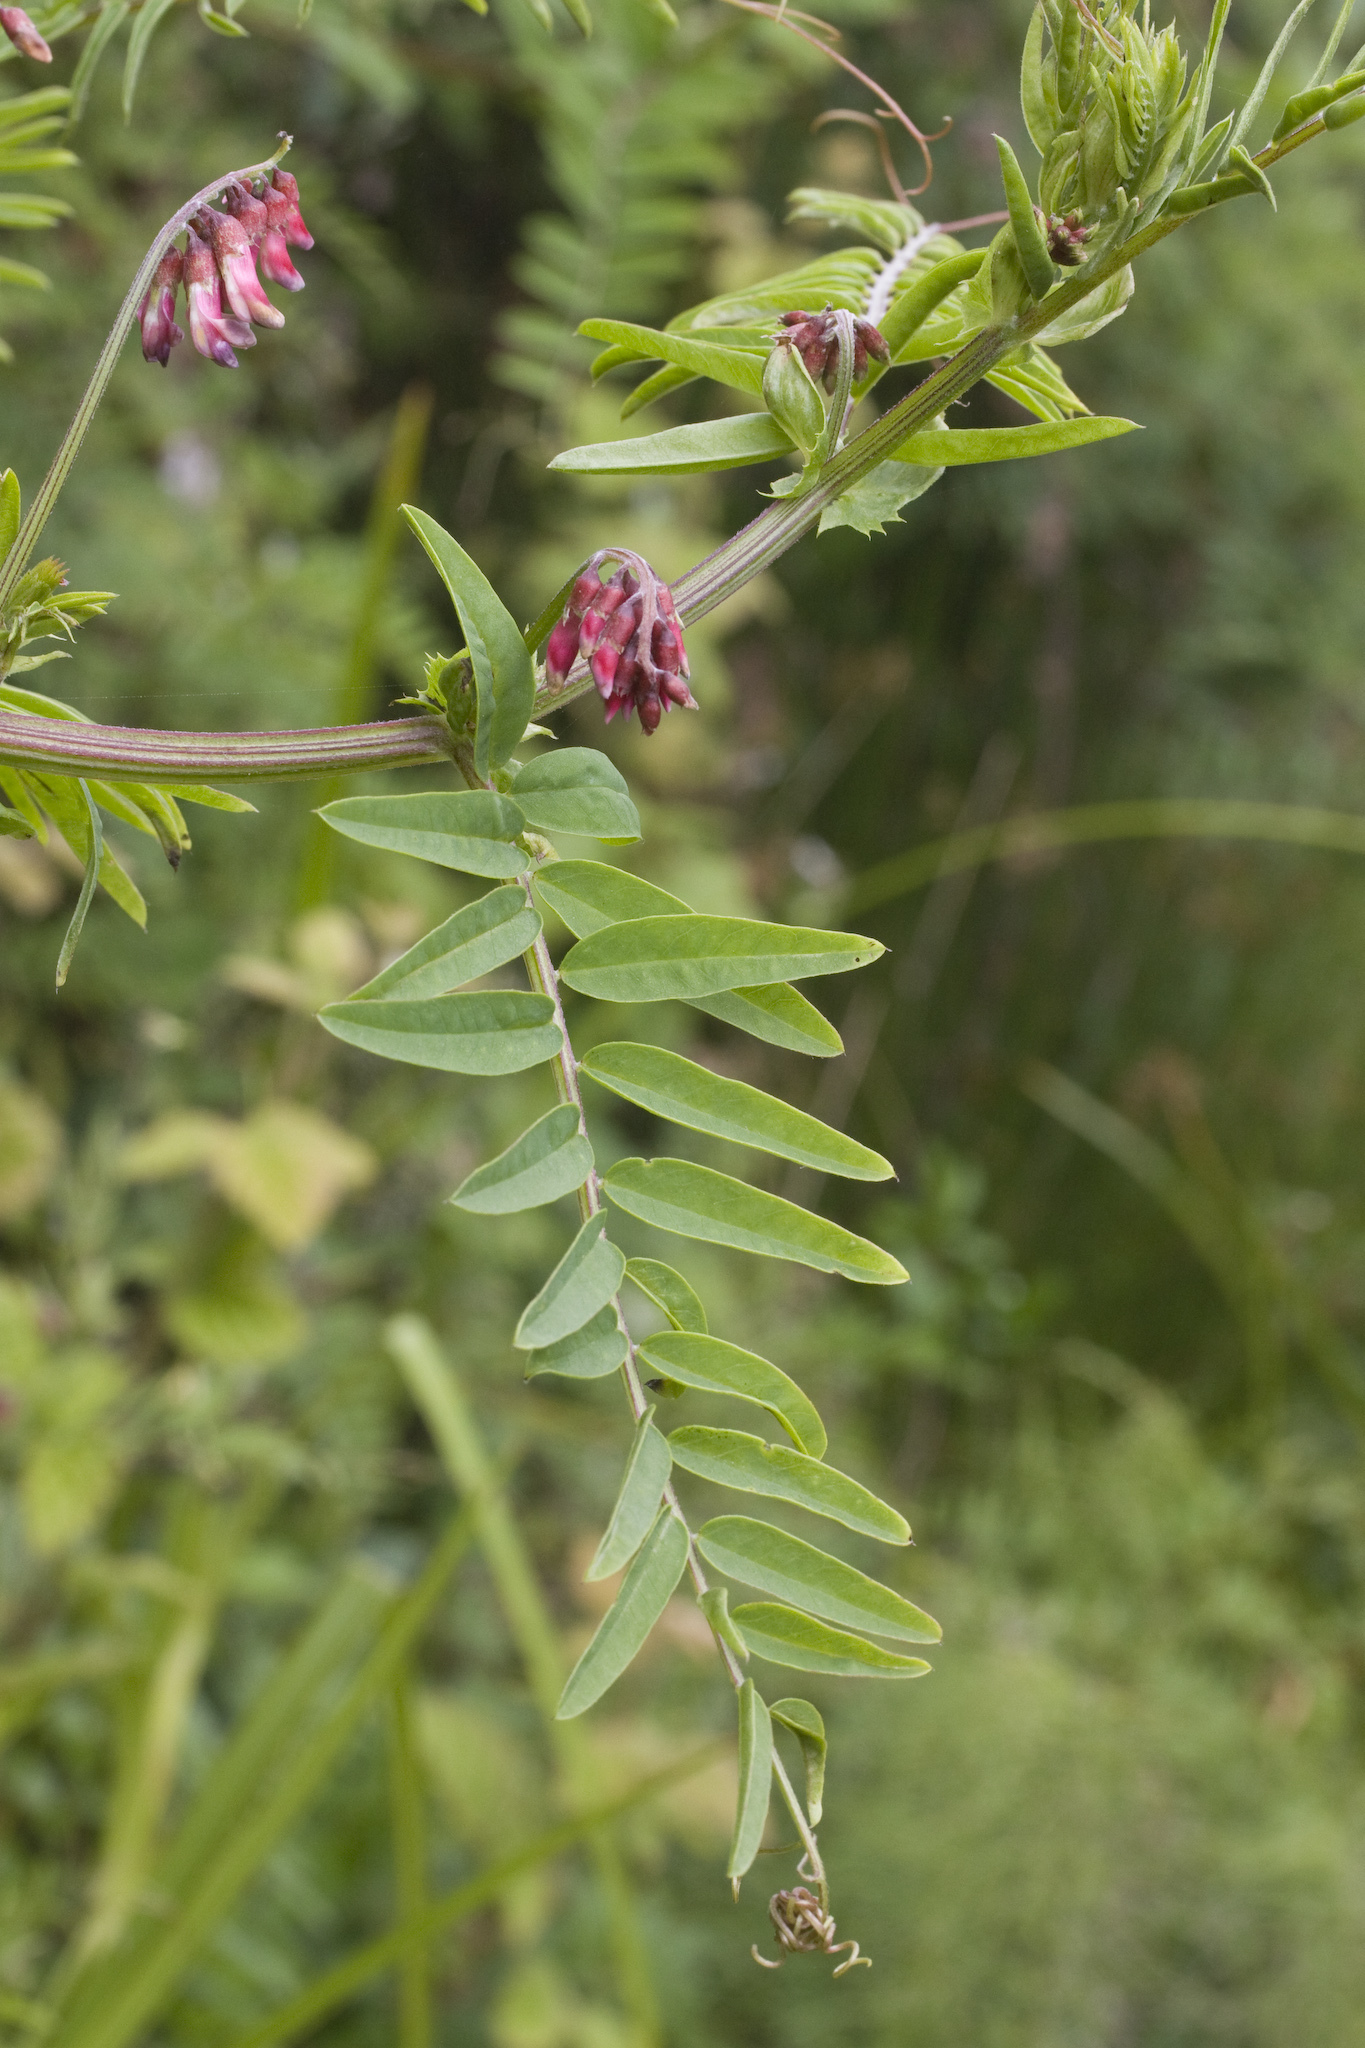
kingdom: Plantae
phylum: Tracheophyta
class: Magnoliopsida
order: Fabales
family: Fabaceae
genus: Vicia
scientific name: Vicia
